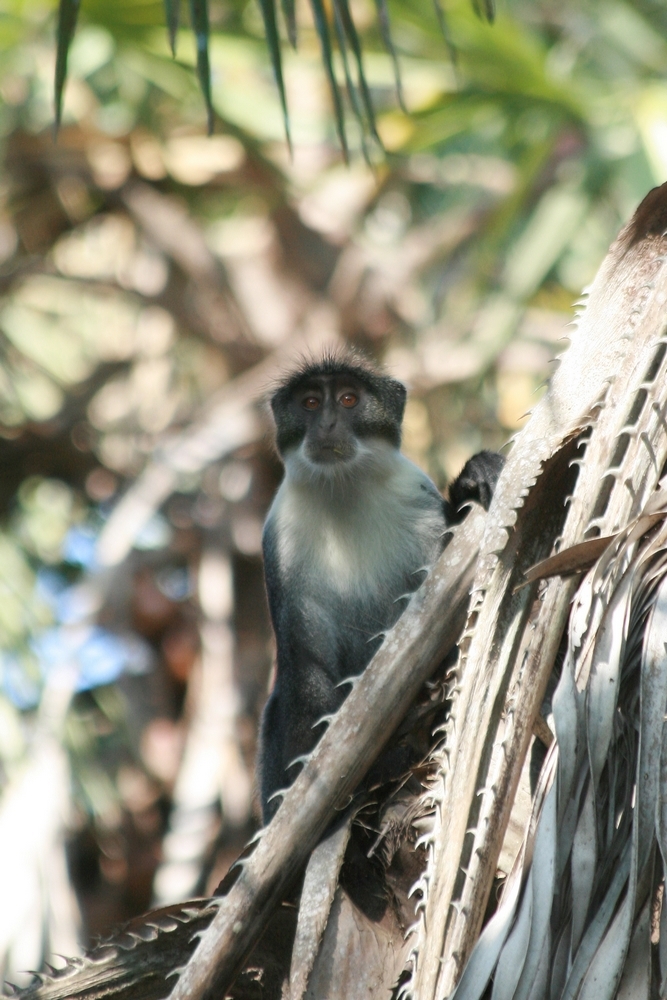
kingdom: Animalia
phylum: Chordata
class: Mammalia
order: Primates
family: Cercopithecidae
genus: Cercopithecus
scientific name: Cercopithecus mitis
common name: Blue monkey
